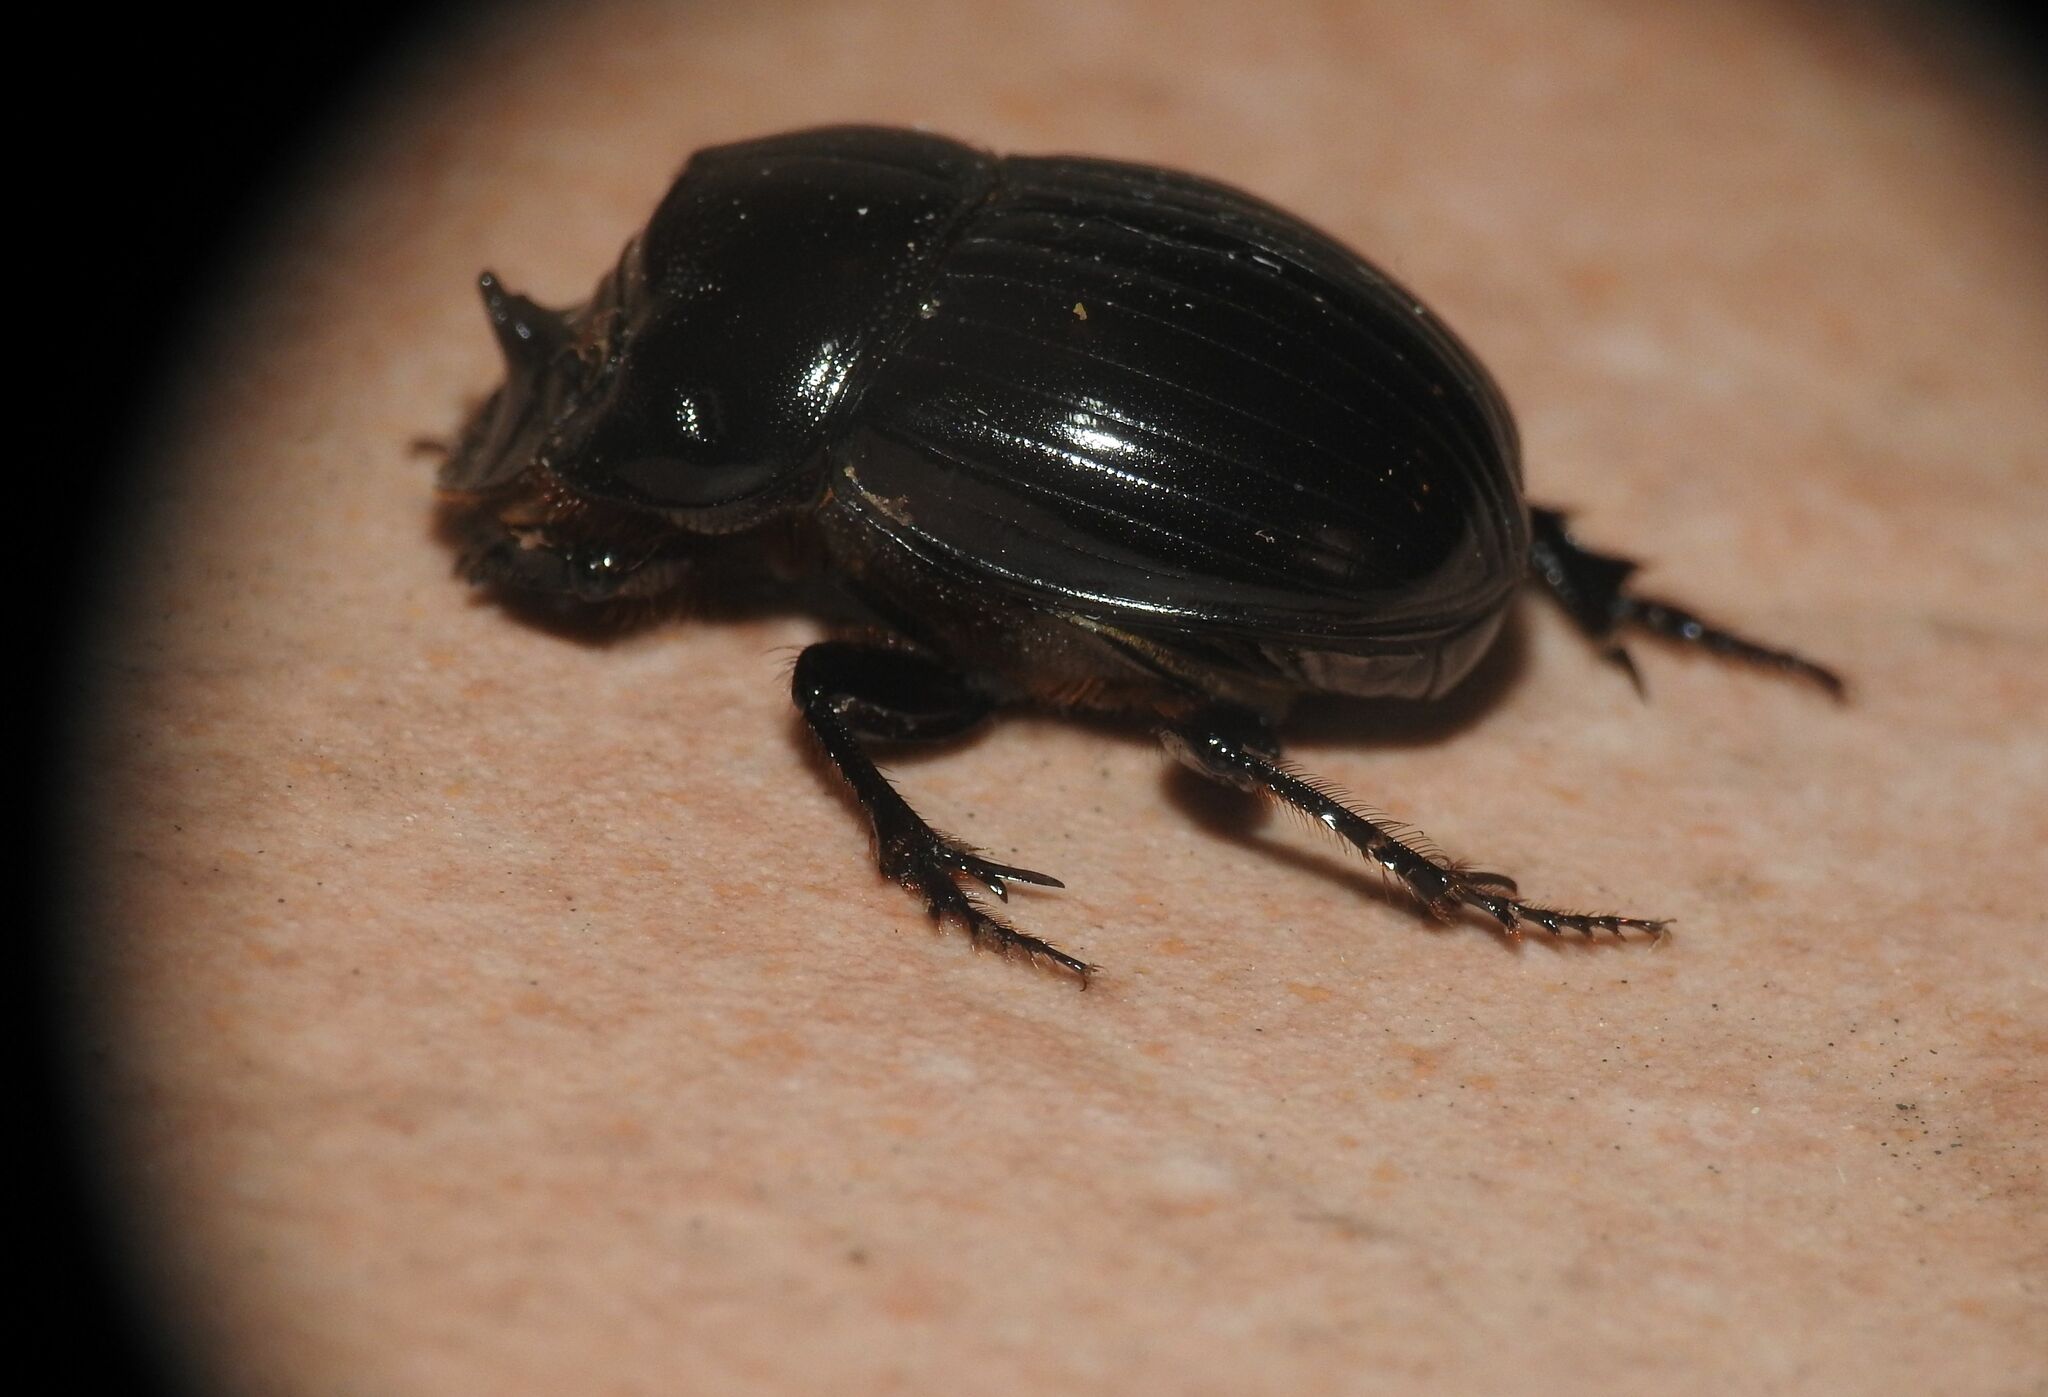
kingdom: Animalia
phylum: Arthropoda
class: Insecta
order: Coleoptera
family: Scarabaeidae
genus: Copris
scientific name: Copris lunaris
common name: Horned dung beetle
